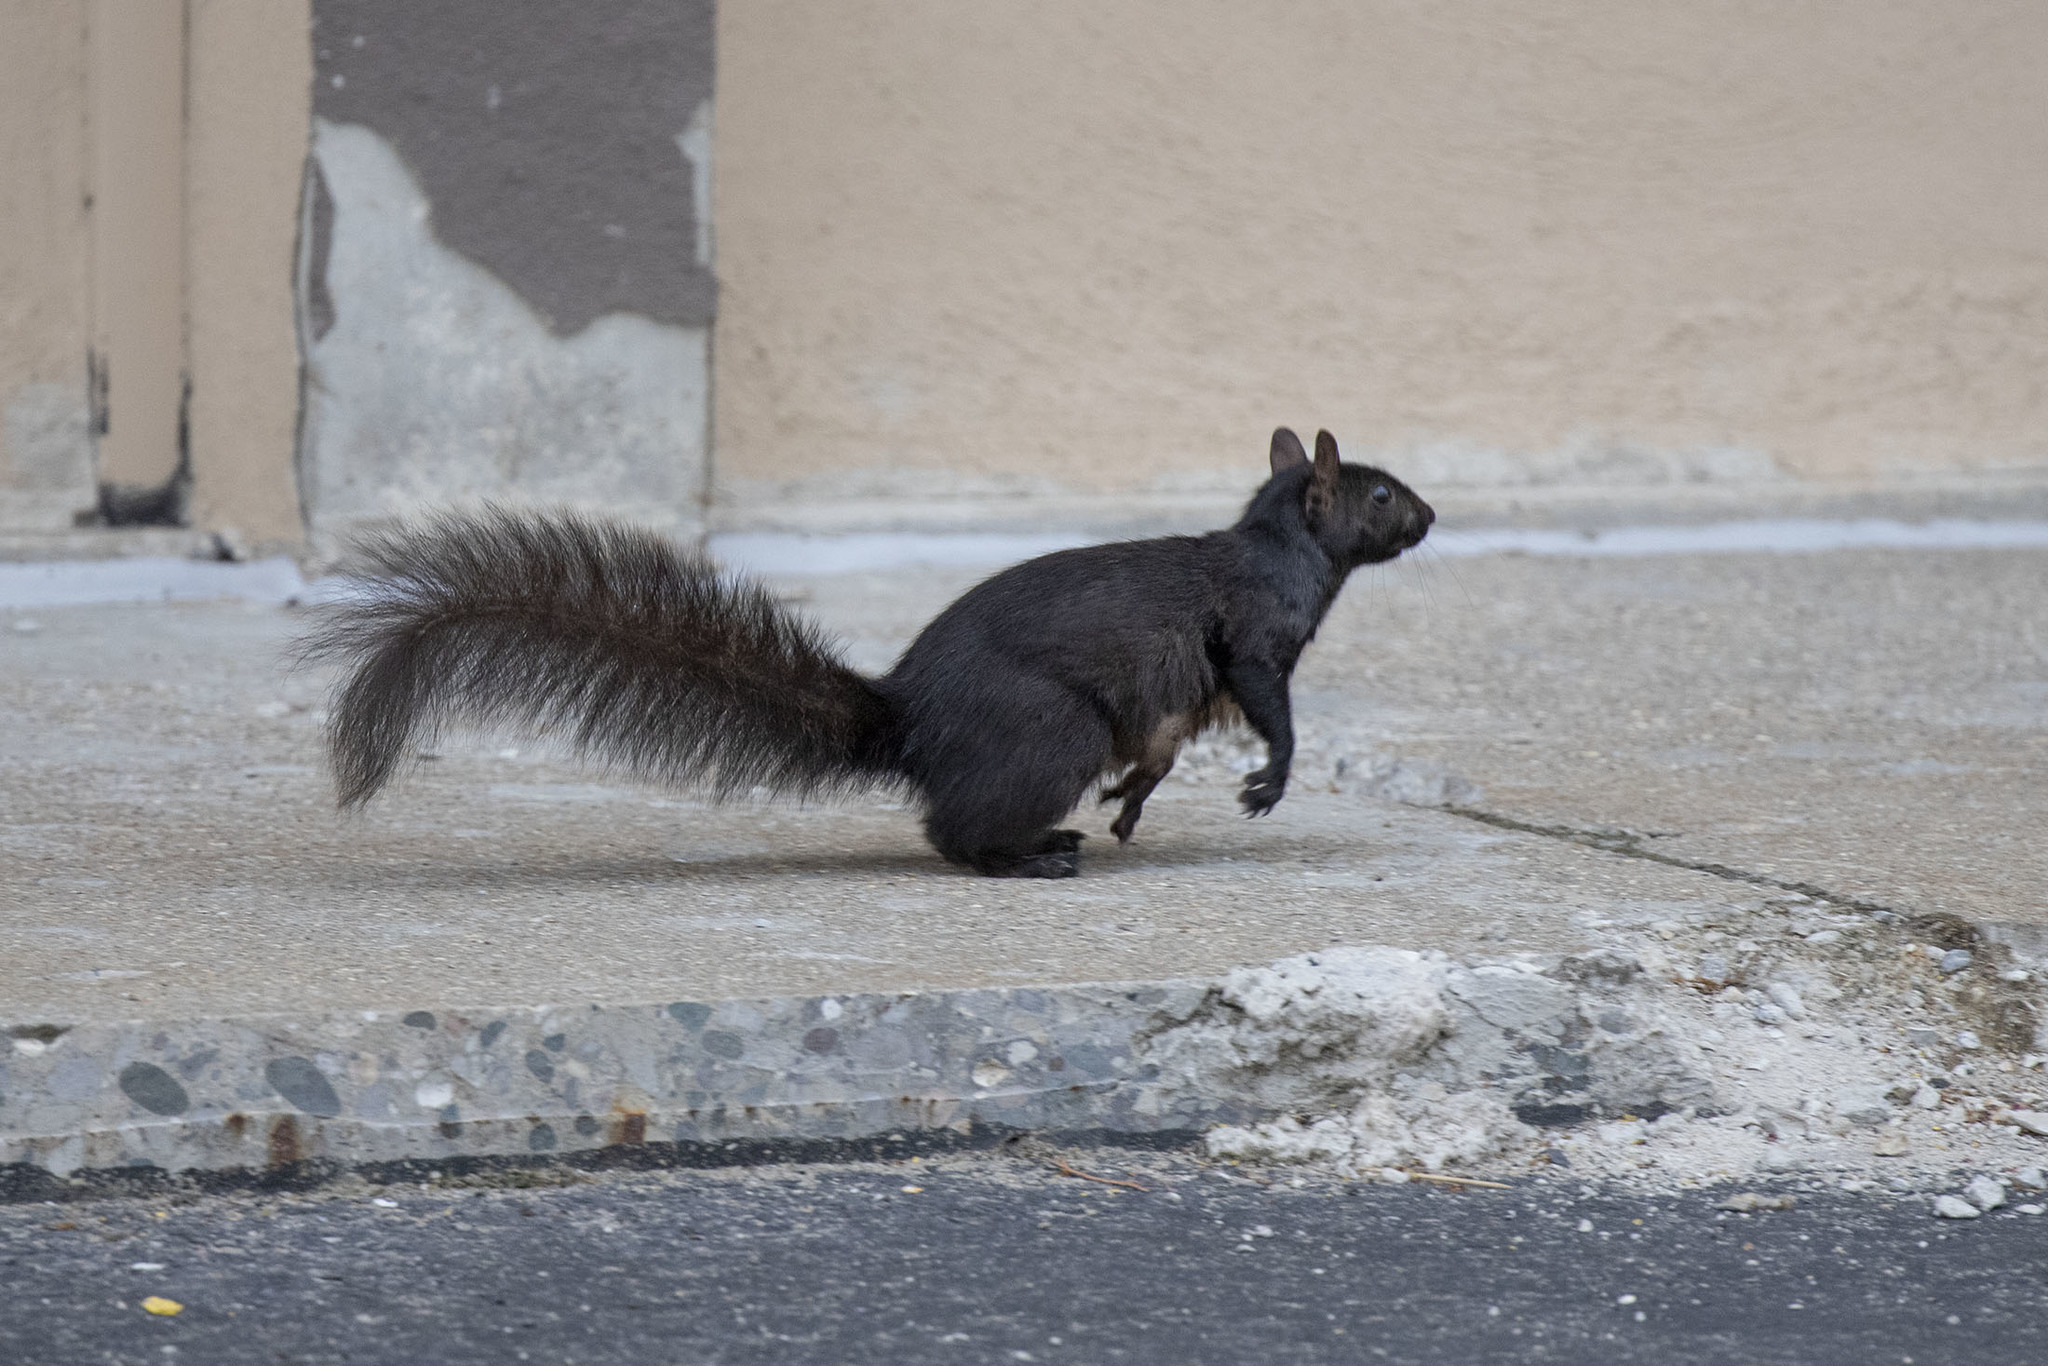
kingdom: Animalia
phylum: Chordata
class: Mammalia
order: Rodentia
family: Sciuridae
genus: Sciurus
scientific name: Sciurus carolinensis
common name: Eastern gray squirrel
